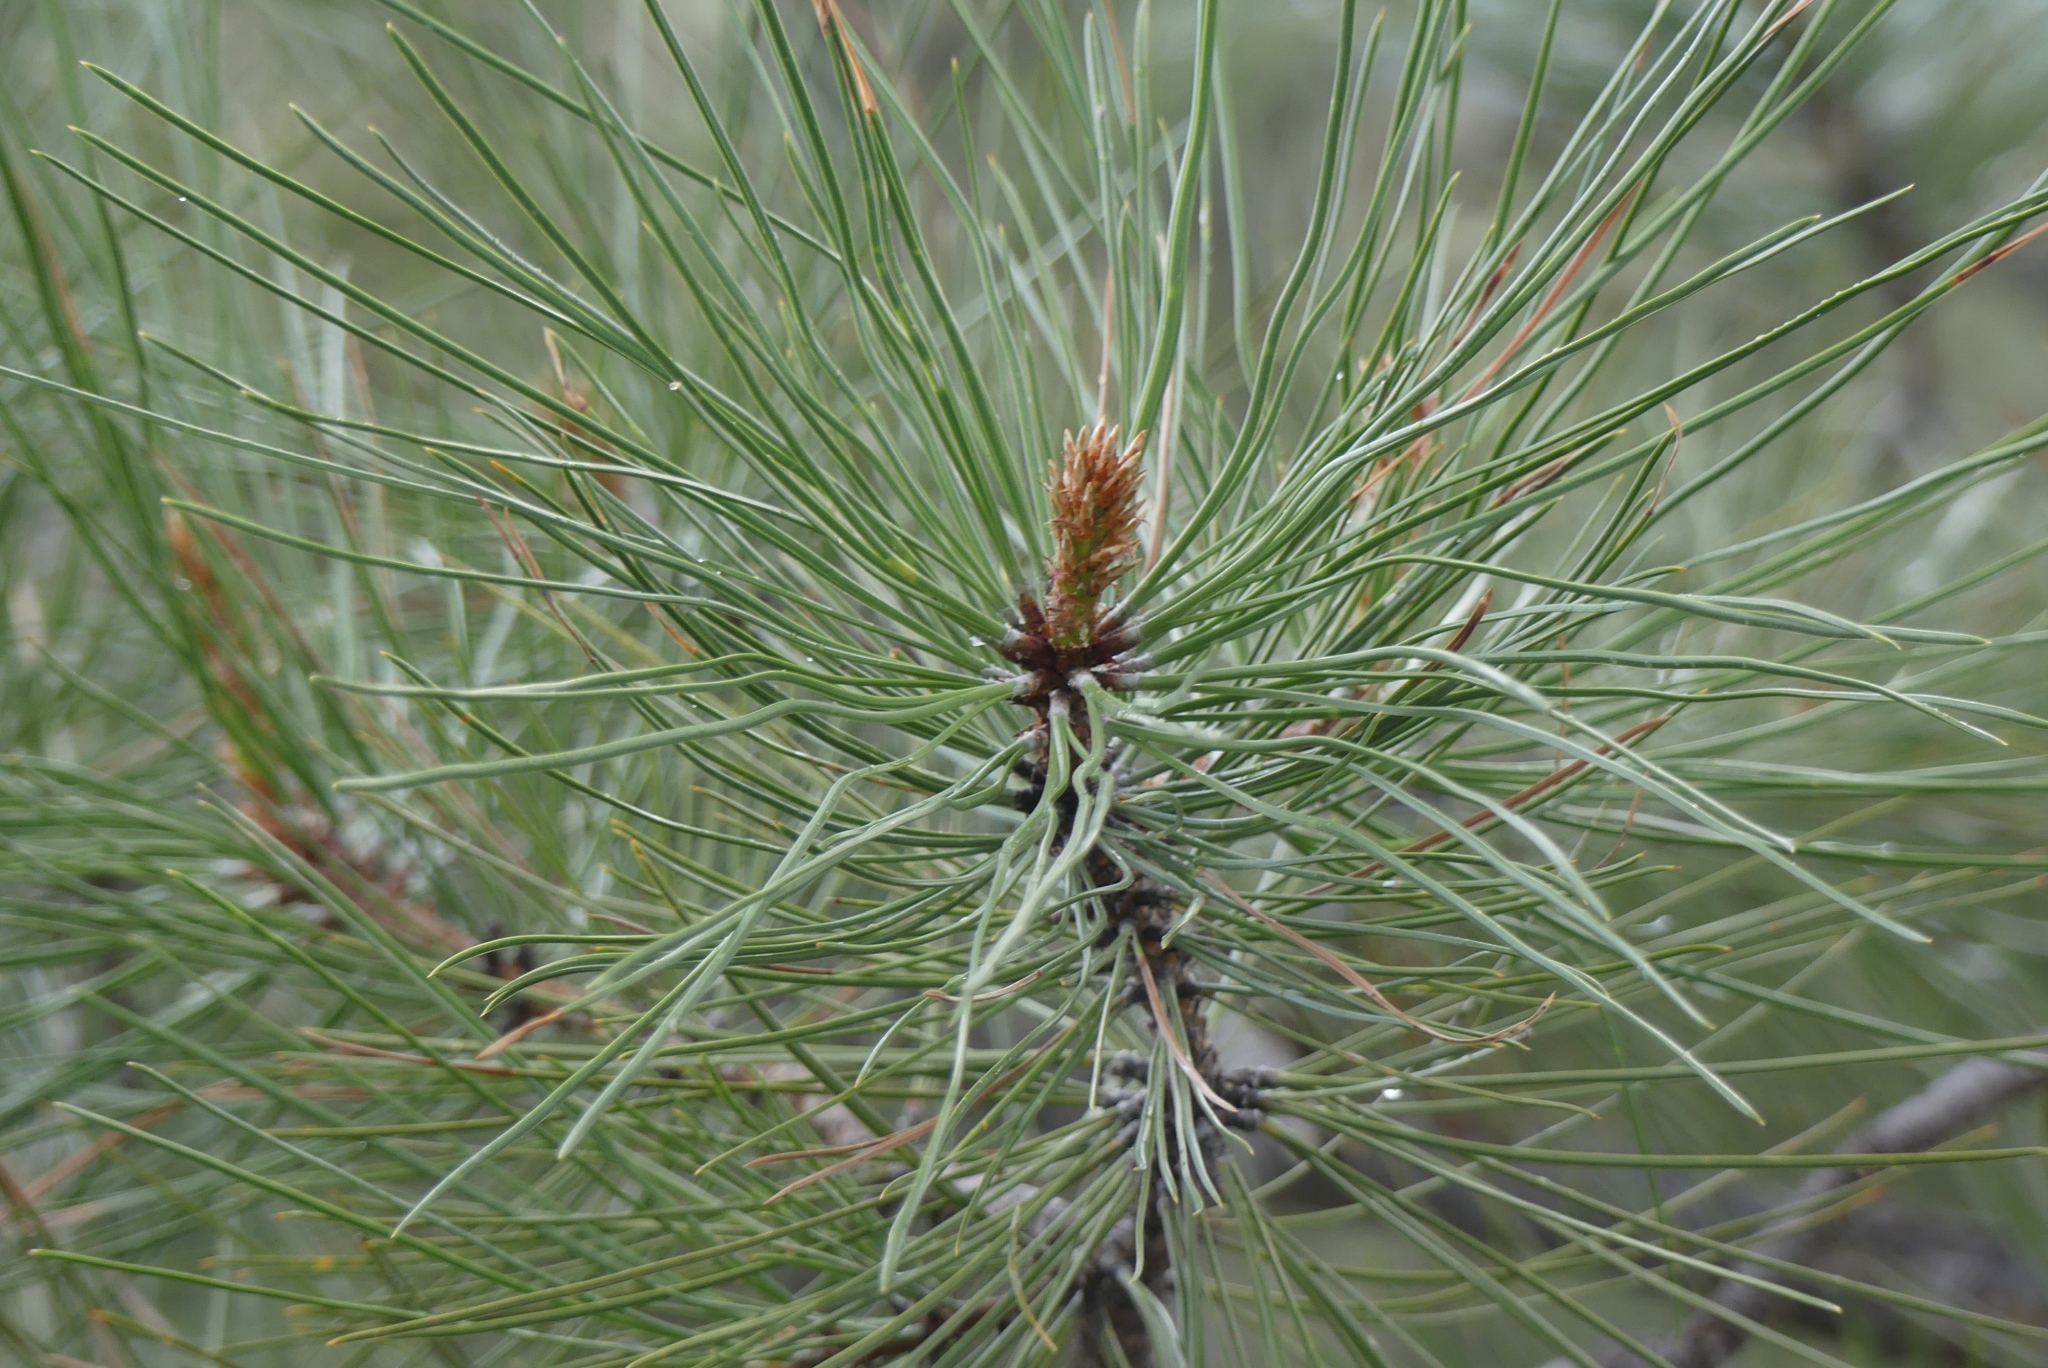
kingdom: Plantae
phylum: Tracheophyta
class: Pinopsida
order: Pinales
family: Pinaceae
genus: Pinus
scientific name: Pinus ponderosa
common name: Western yellow-pine
